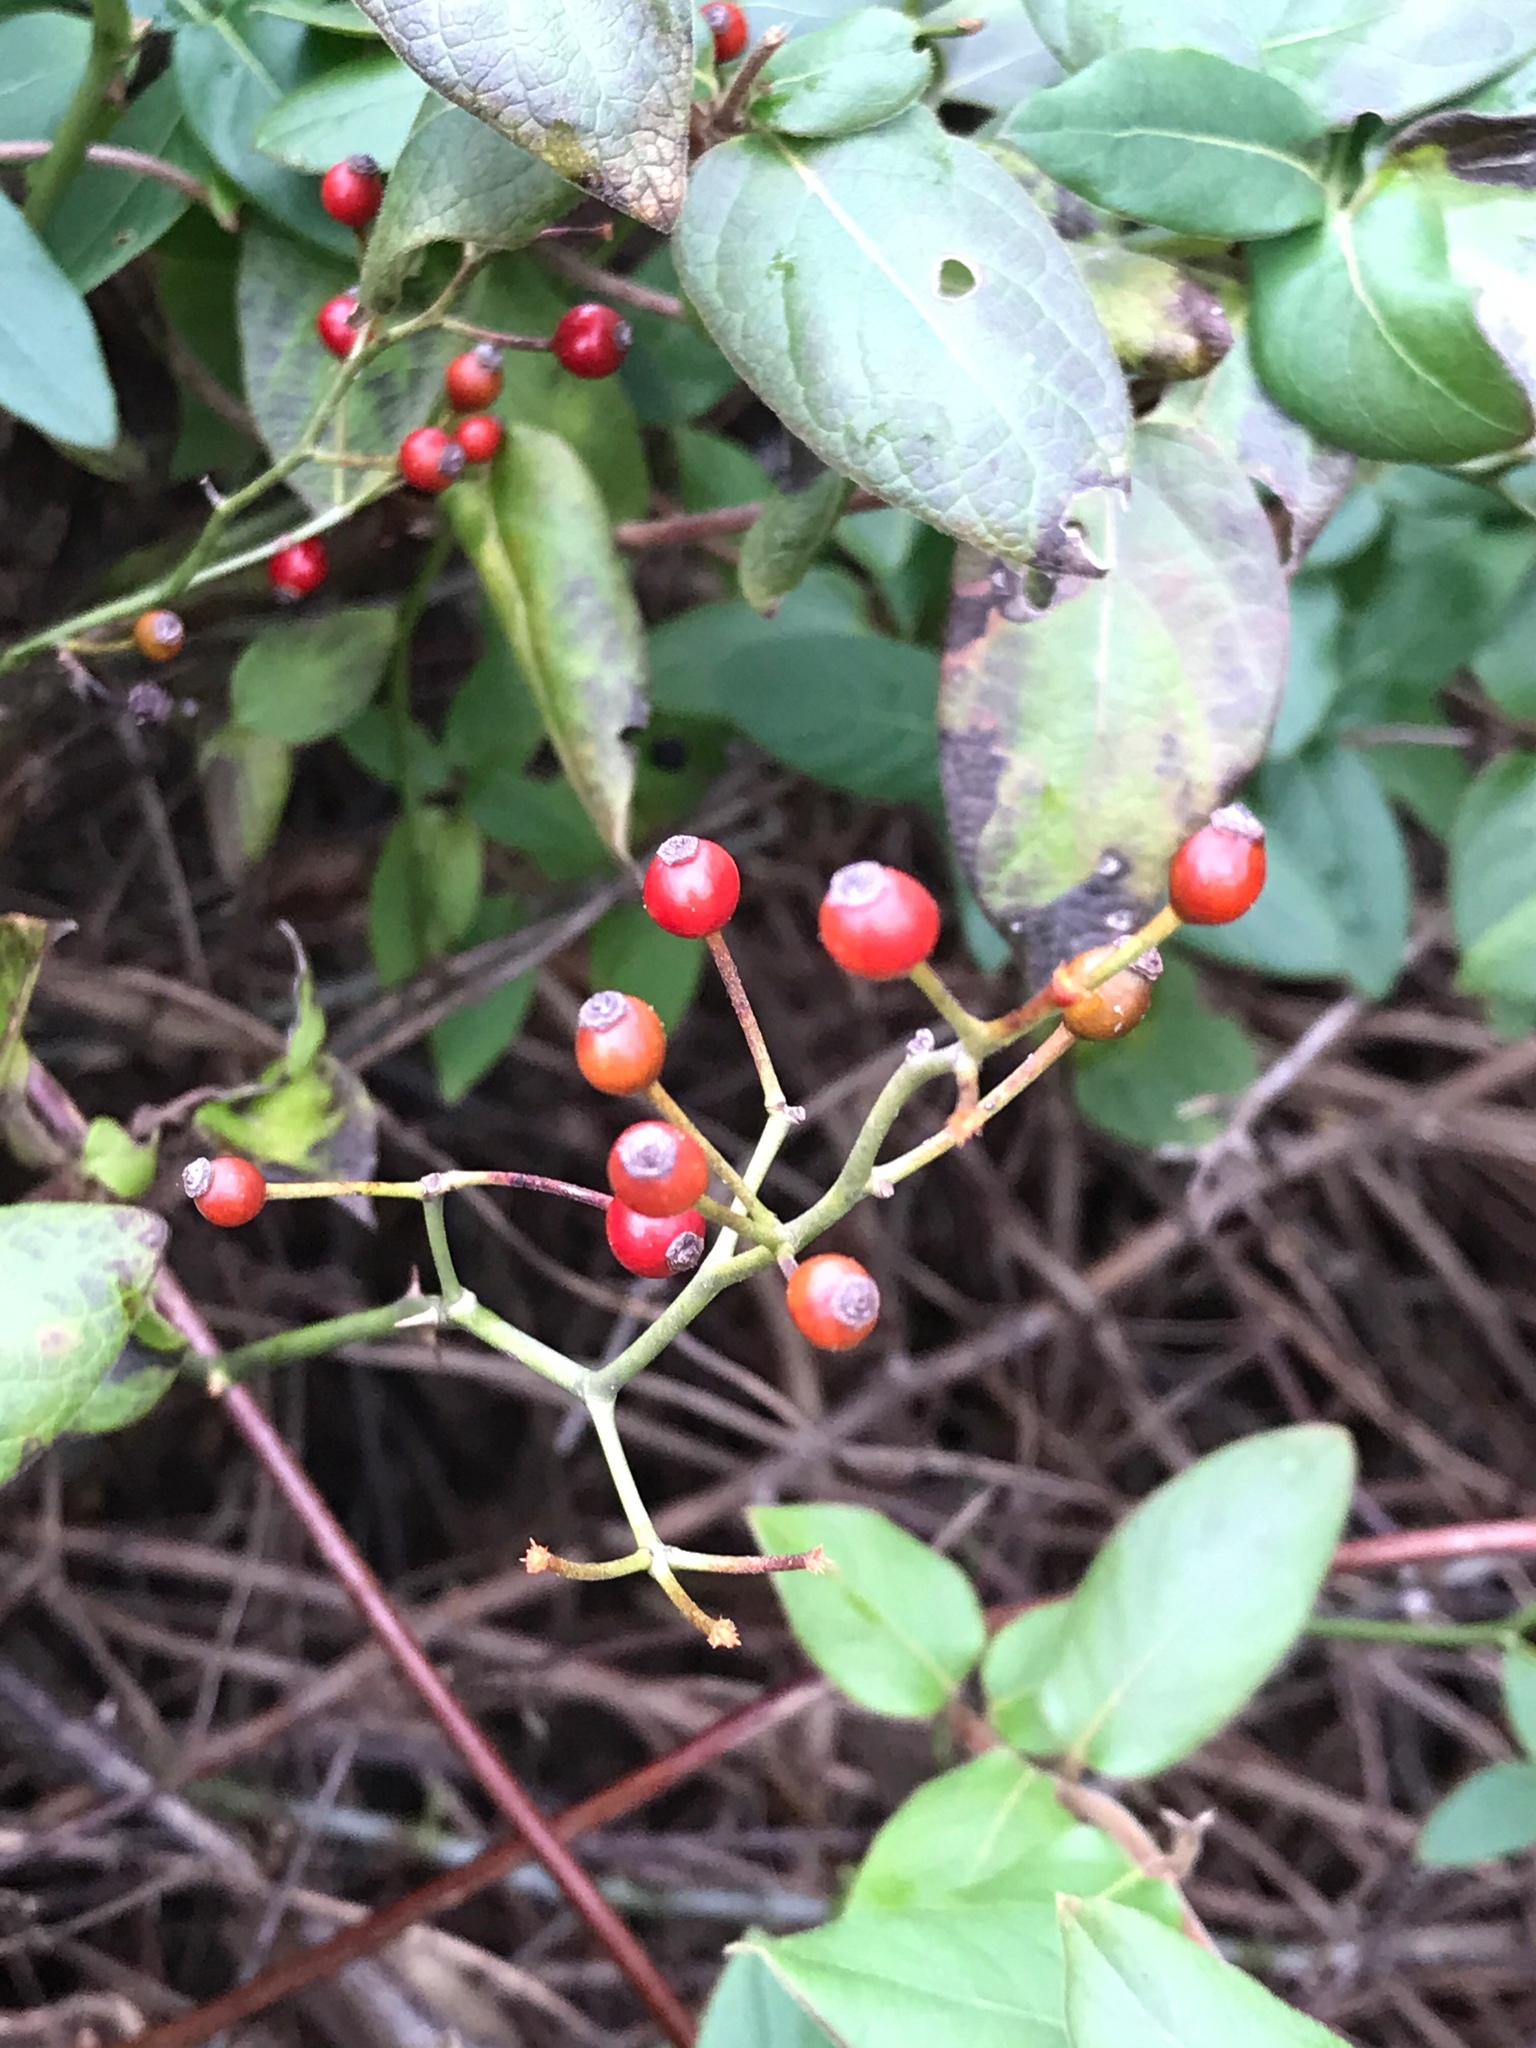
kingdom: Plantae
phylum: Tracheophyta
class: Magnoliopsida
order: Rosales
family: Rosaceae
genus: Rosa
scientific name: Rosa multiflora
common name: Multiflora rose
